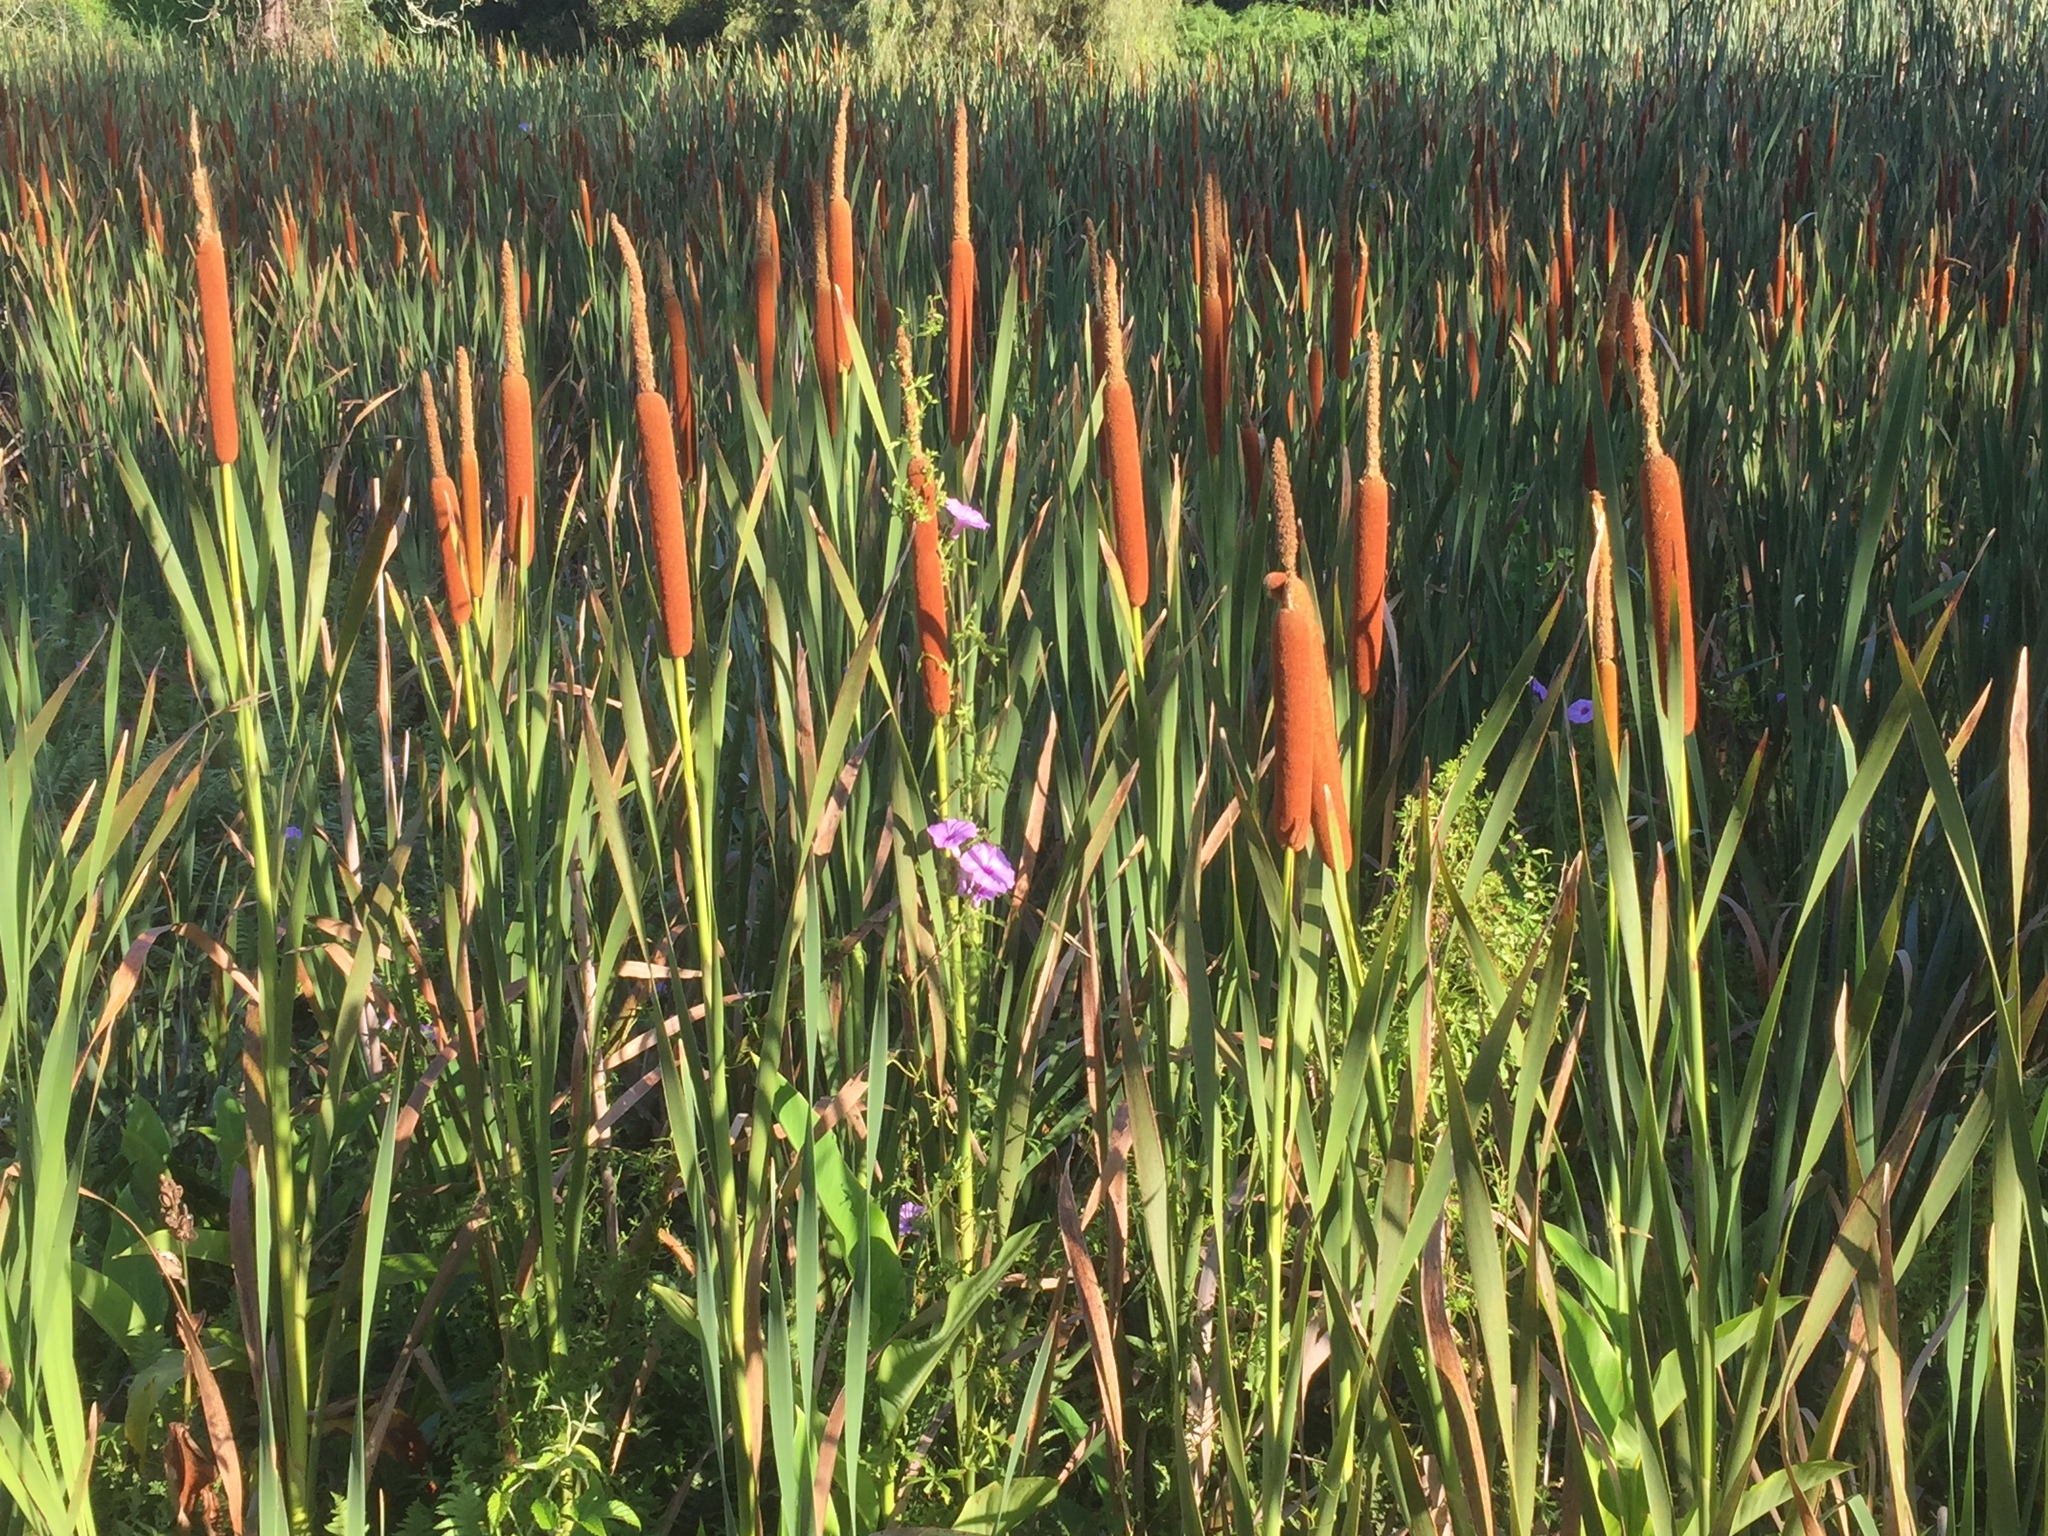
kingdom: Plantae
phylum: Tracheophyta
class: Liliopsida
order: Poales
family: Typhaceae
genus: Typha
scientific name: Typha capensis
